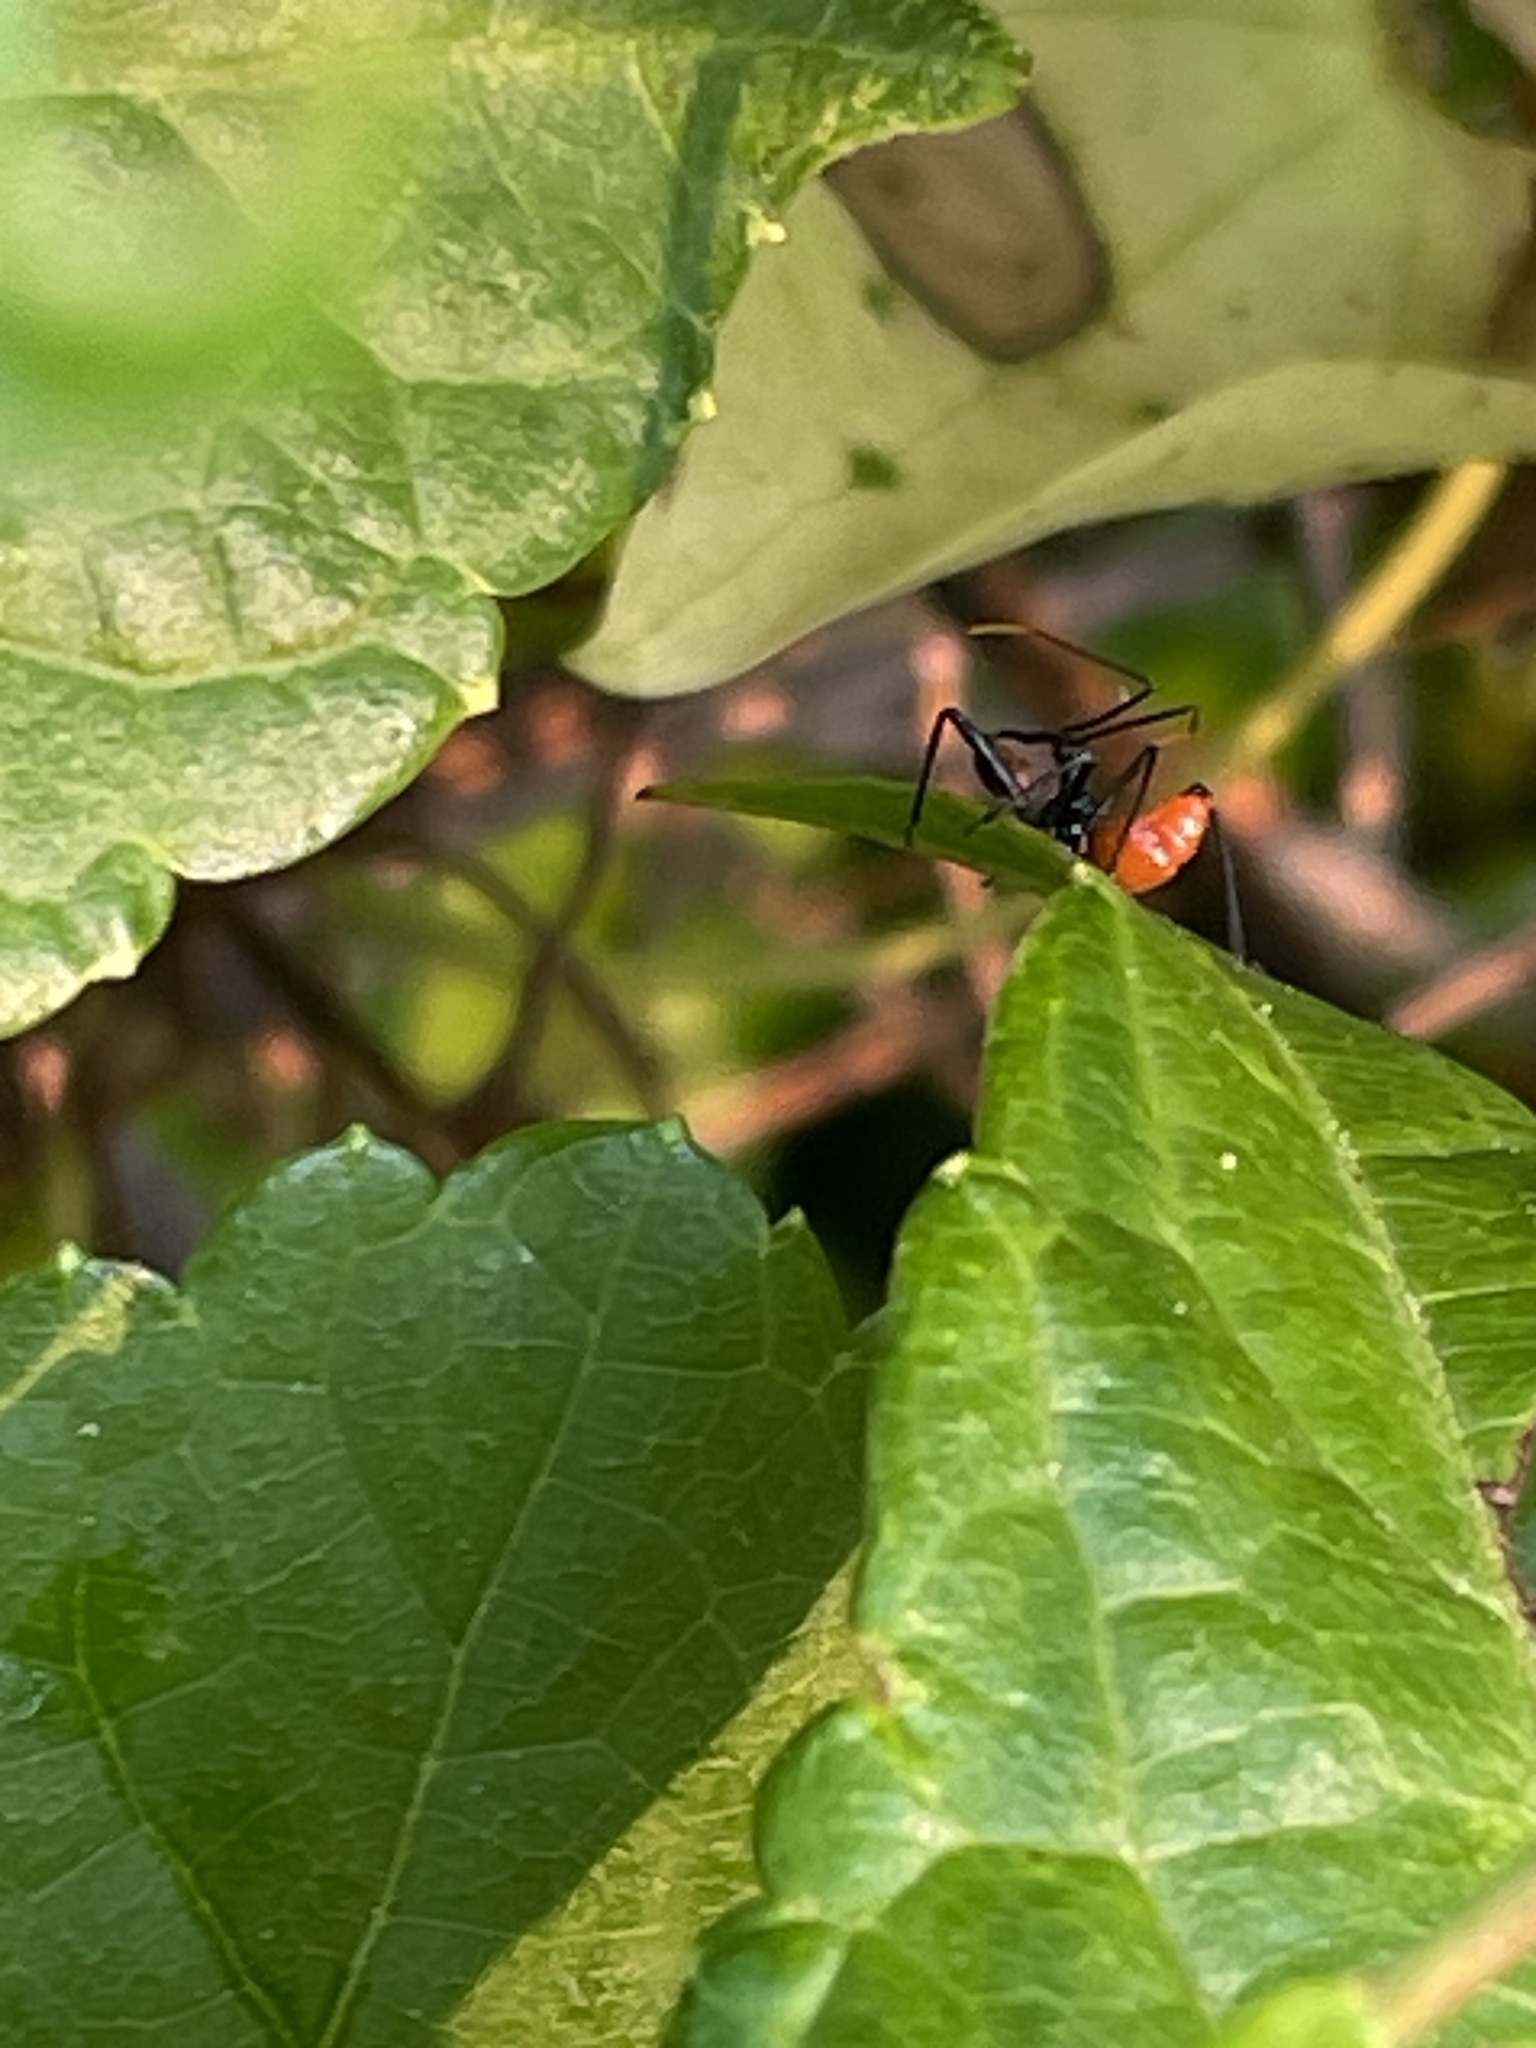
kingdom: Animalia
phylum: Arthropoda
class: Insecta
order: Hemiptera
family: Reduviidae
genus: Arilus
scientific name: Arilus cristatus
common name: North american wheel bug
